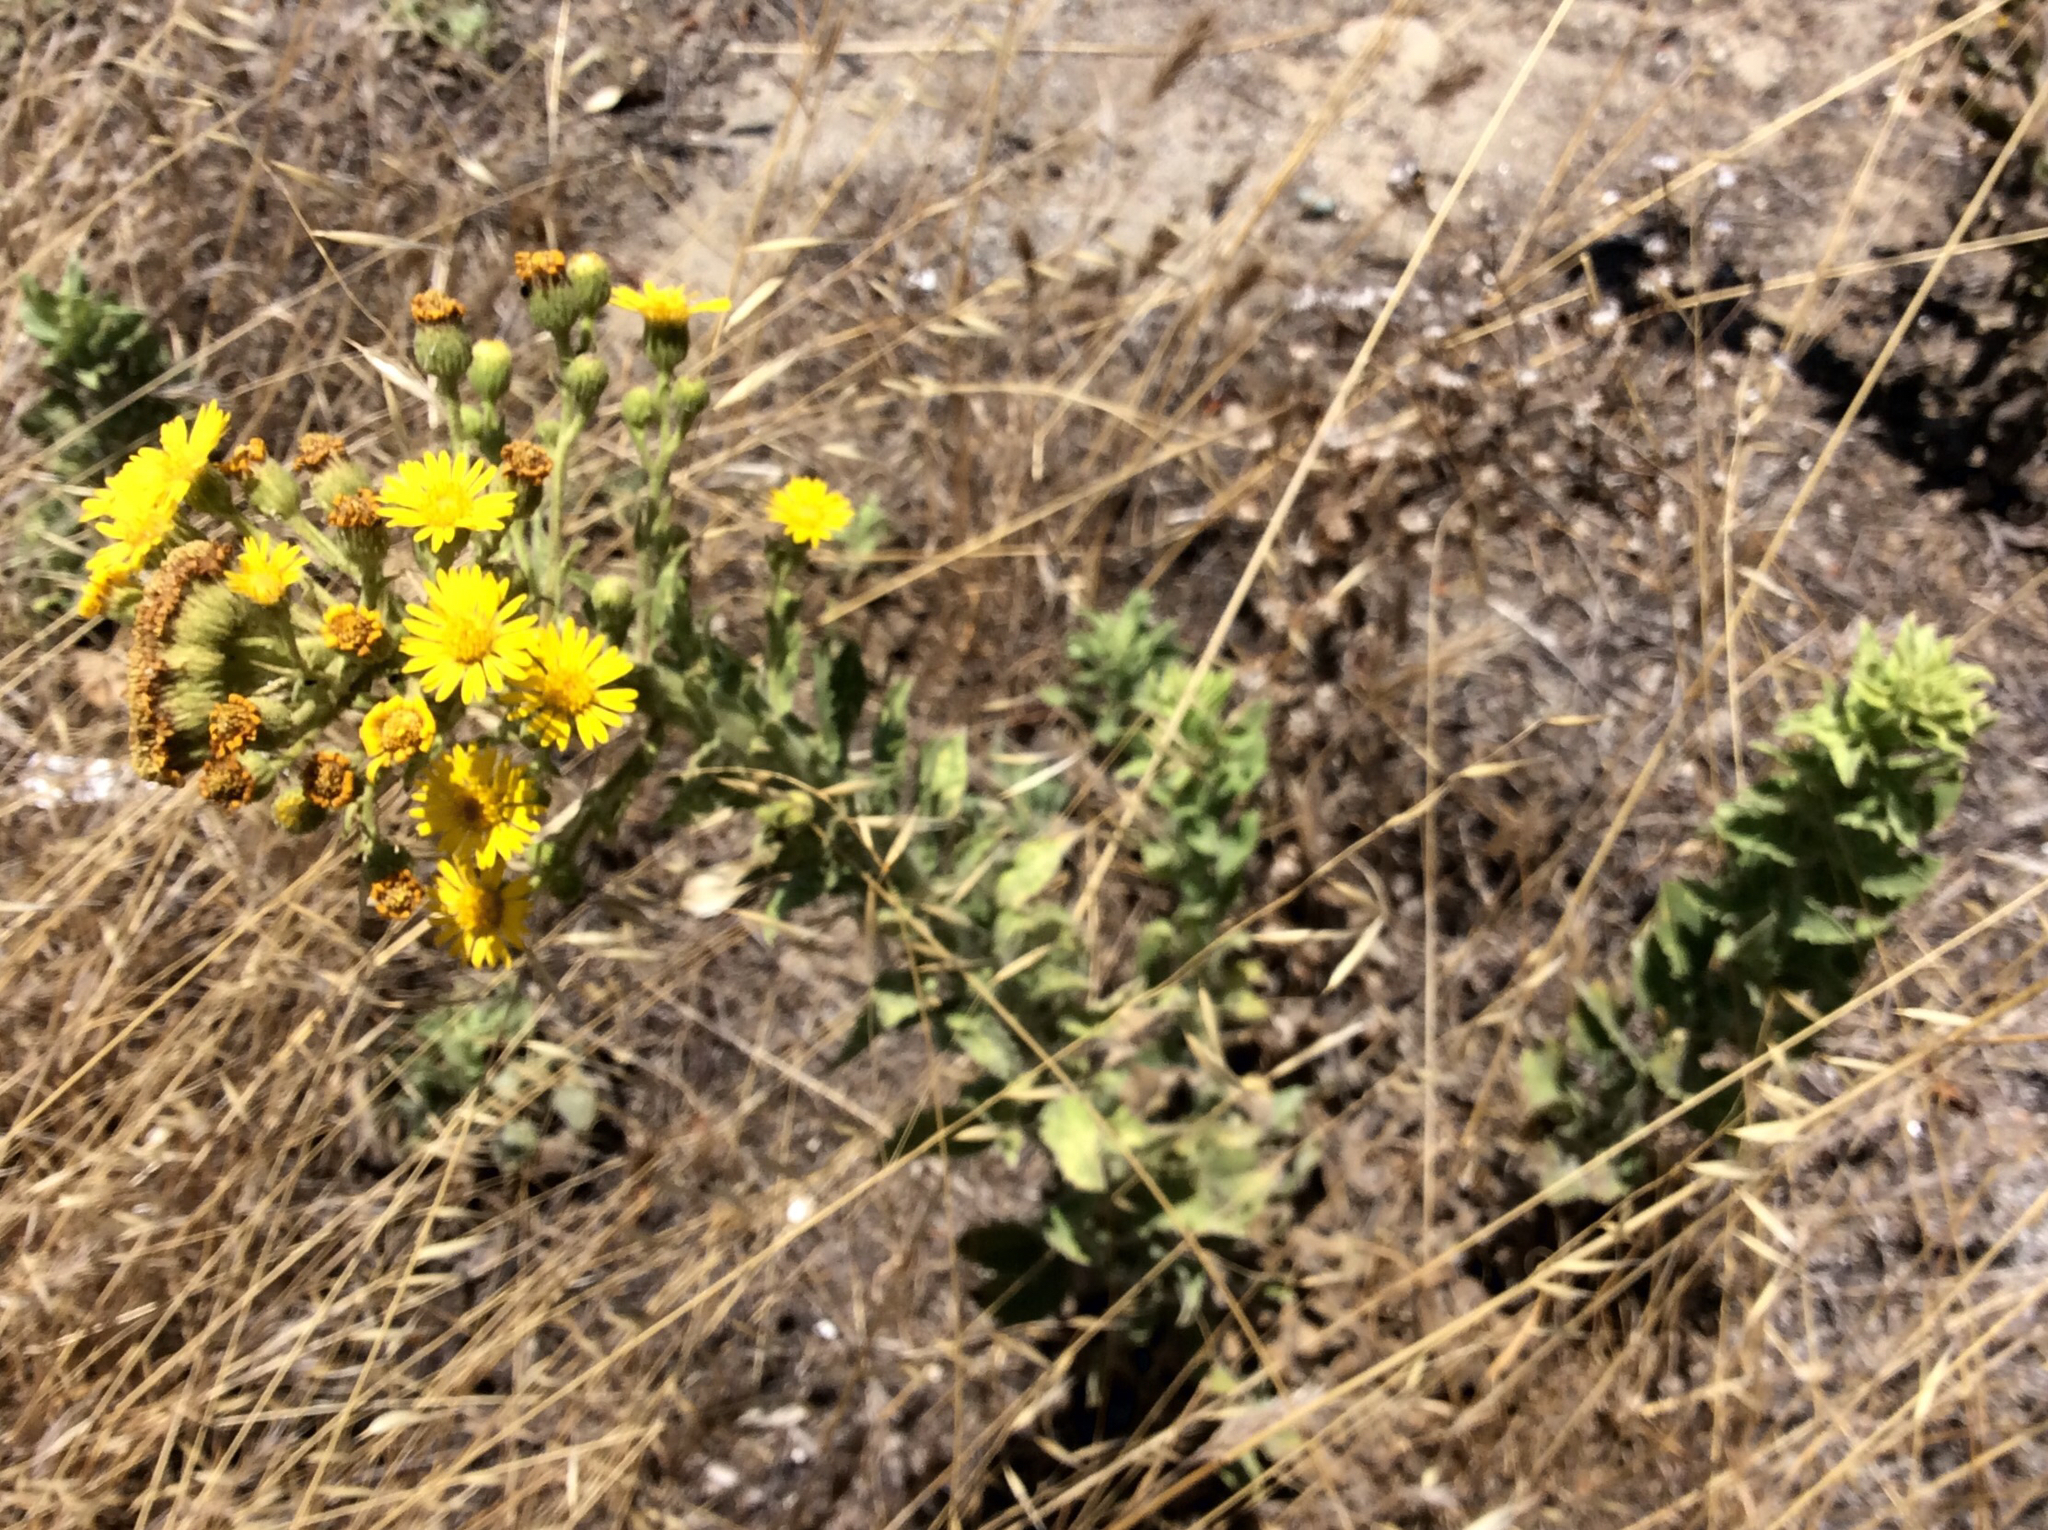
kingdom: Plantae
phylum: Tracheophyta
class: Magnoliopsida
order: Asterales
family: Asteraceae
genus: Heterotheca
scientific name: Heterotheca grandiflora
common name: Telegraphweed
